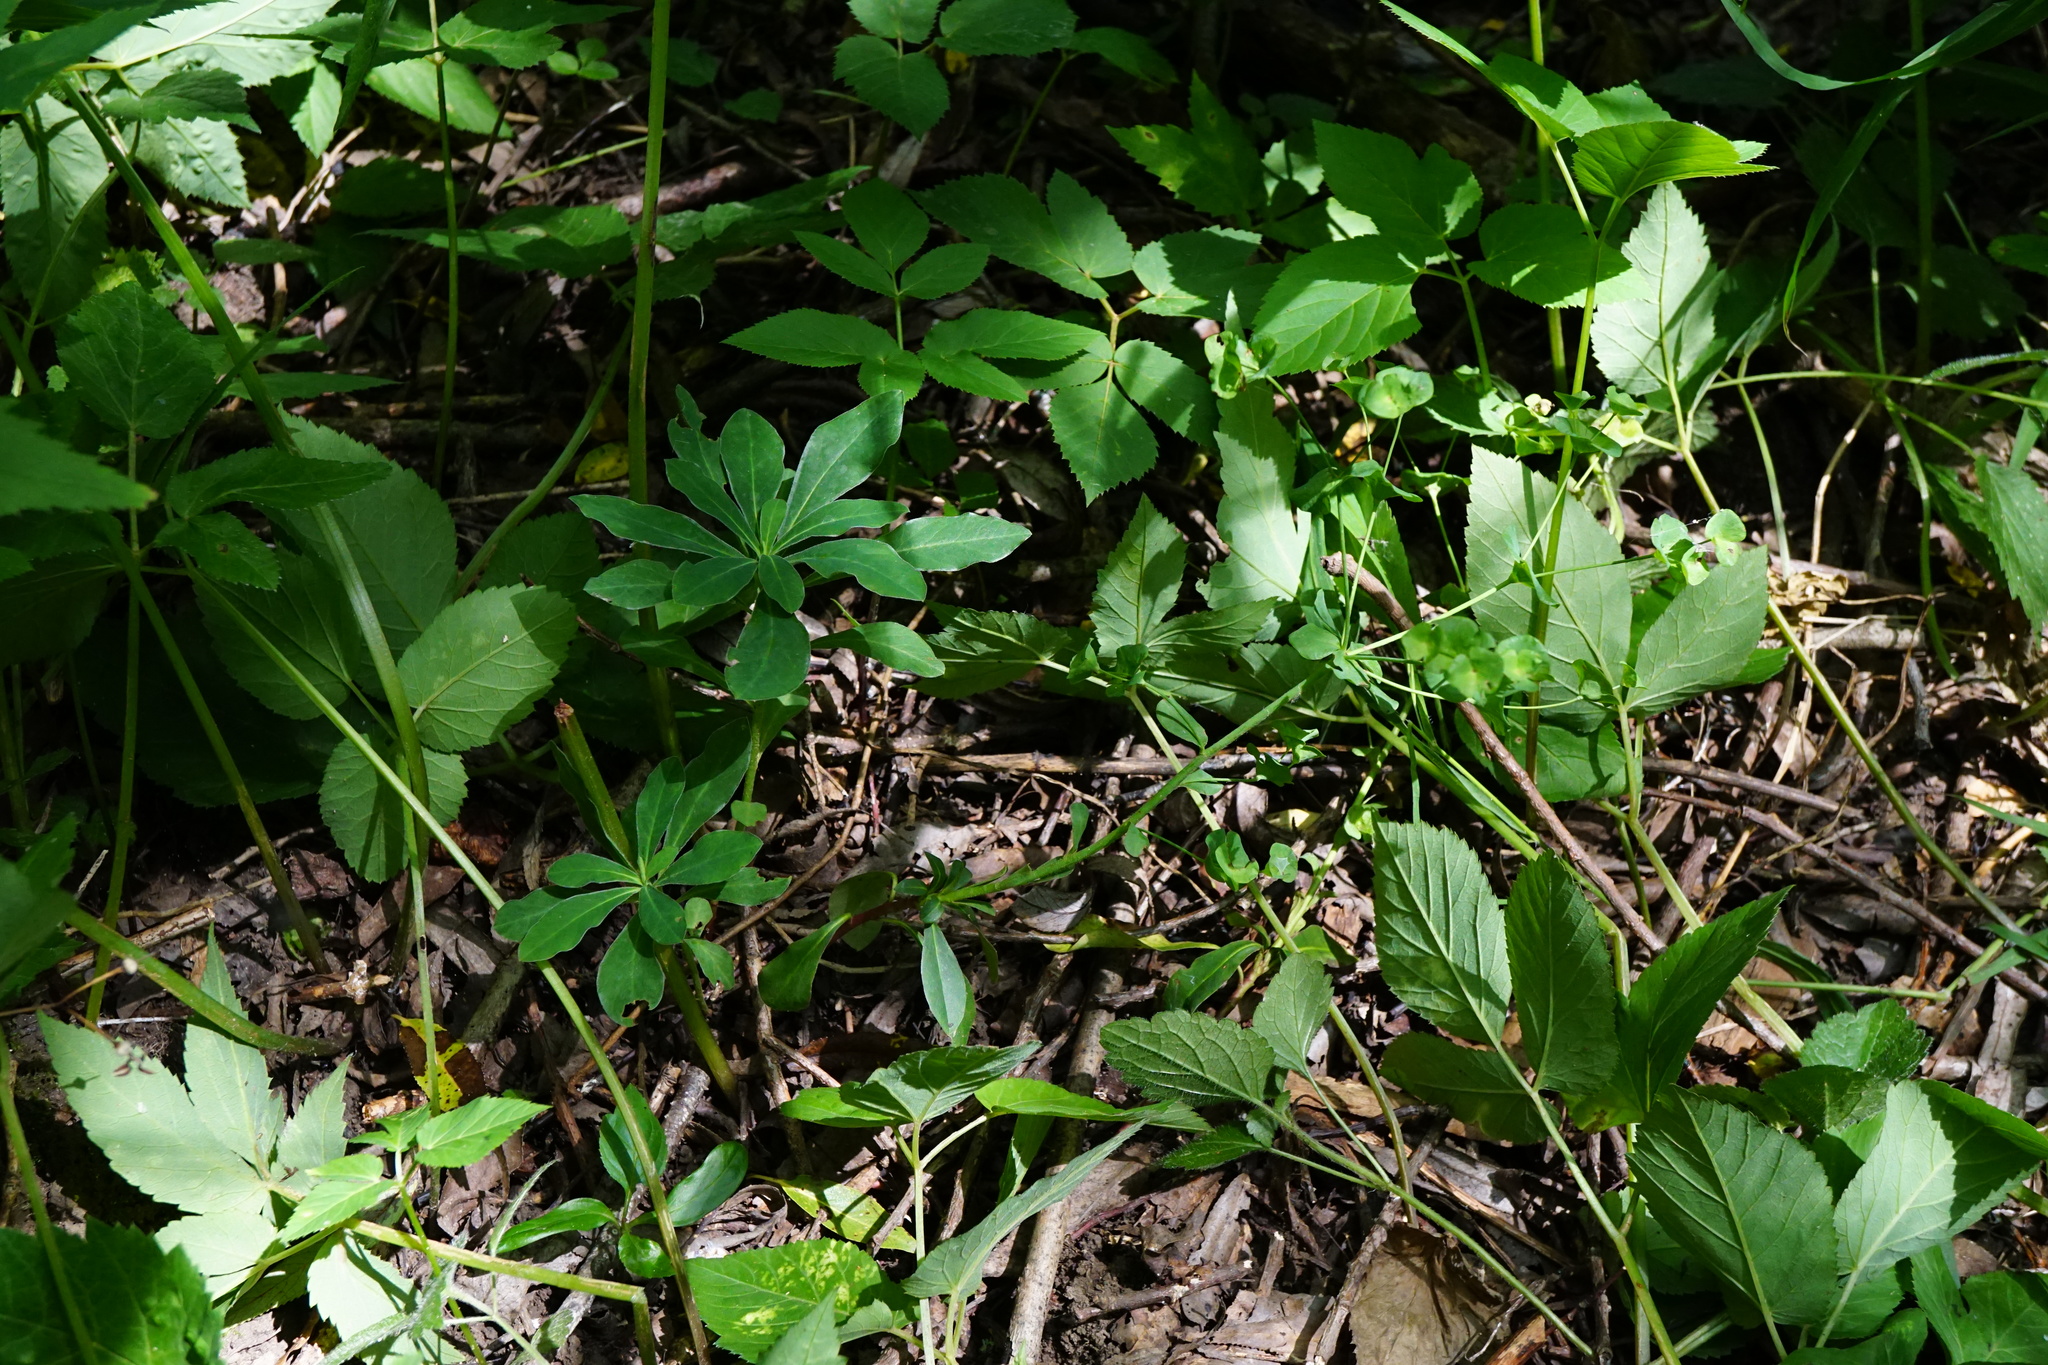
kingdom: Plantae
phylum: Tracheophyta
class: Magnoliopsida
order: Malpighiales
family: Euphorbiaceae
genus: Euphorbia
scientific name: Euphorbia amygdaloides
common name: Wood spurge
